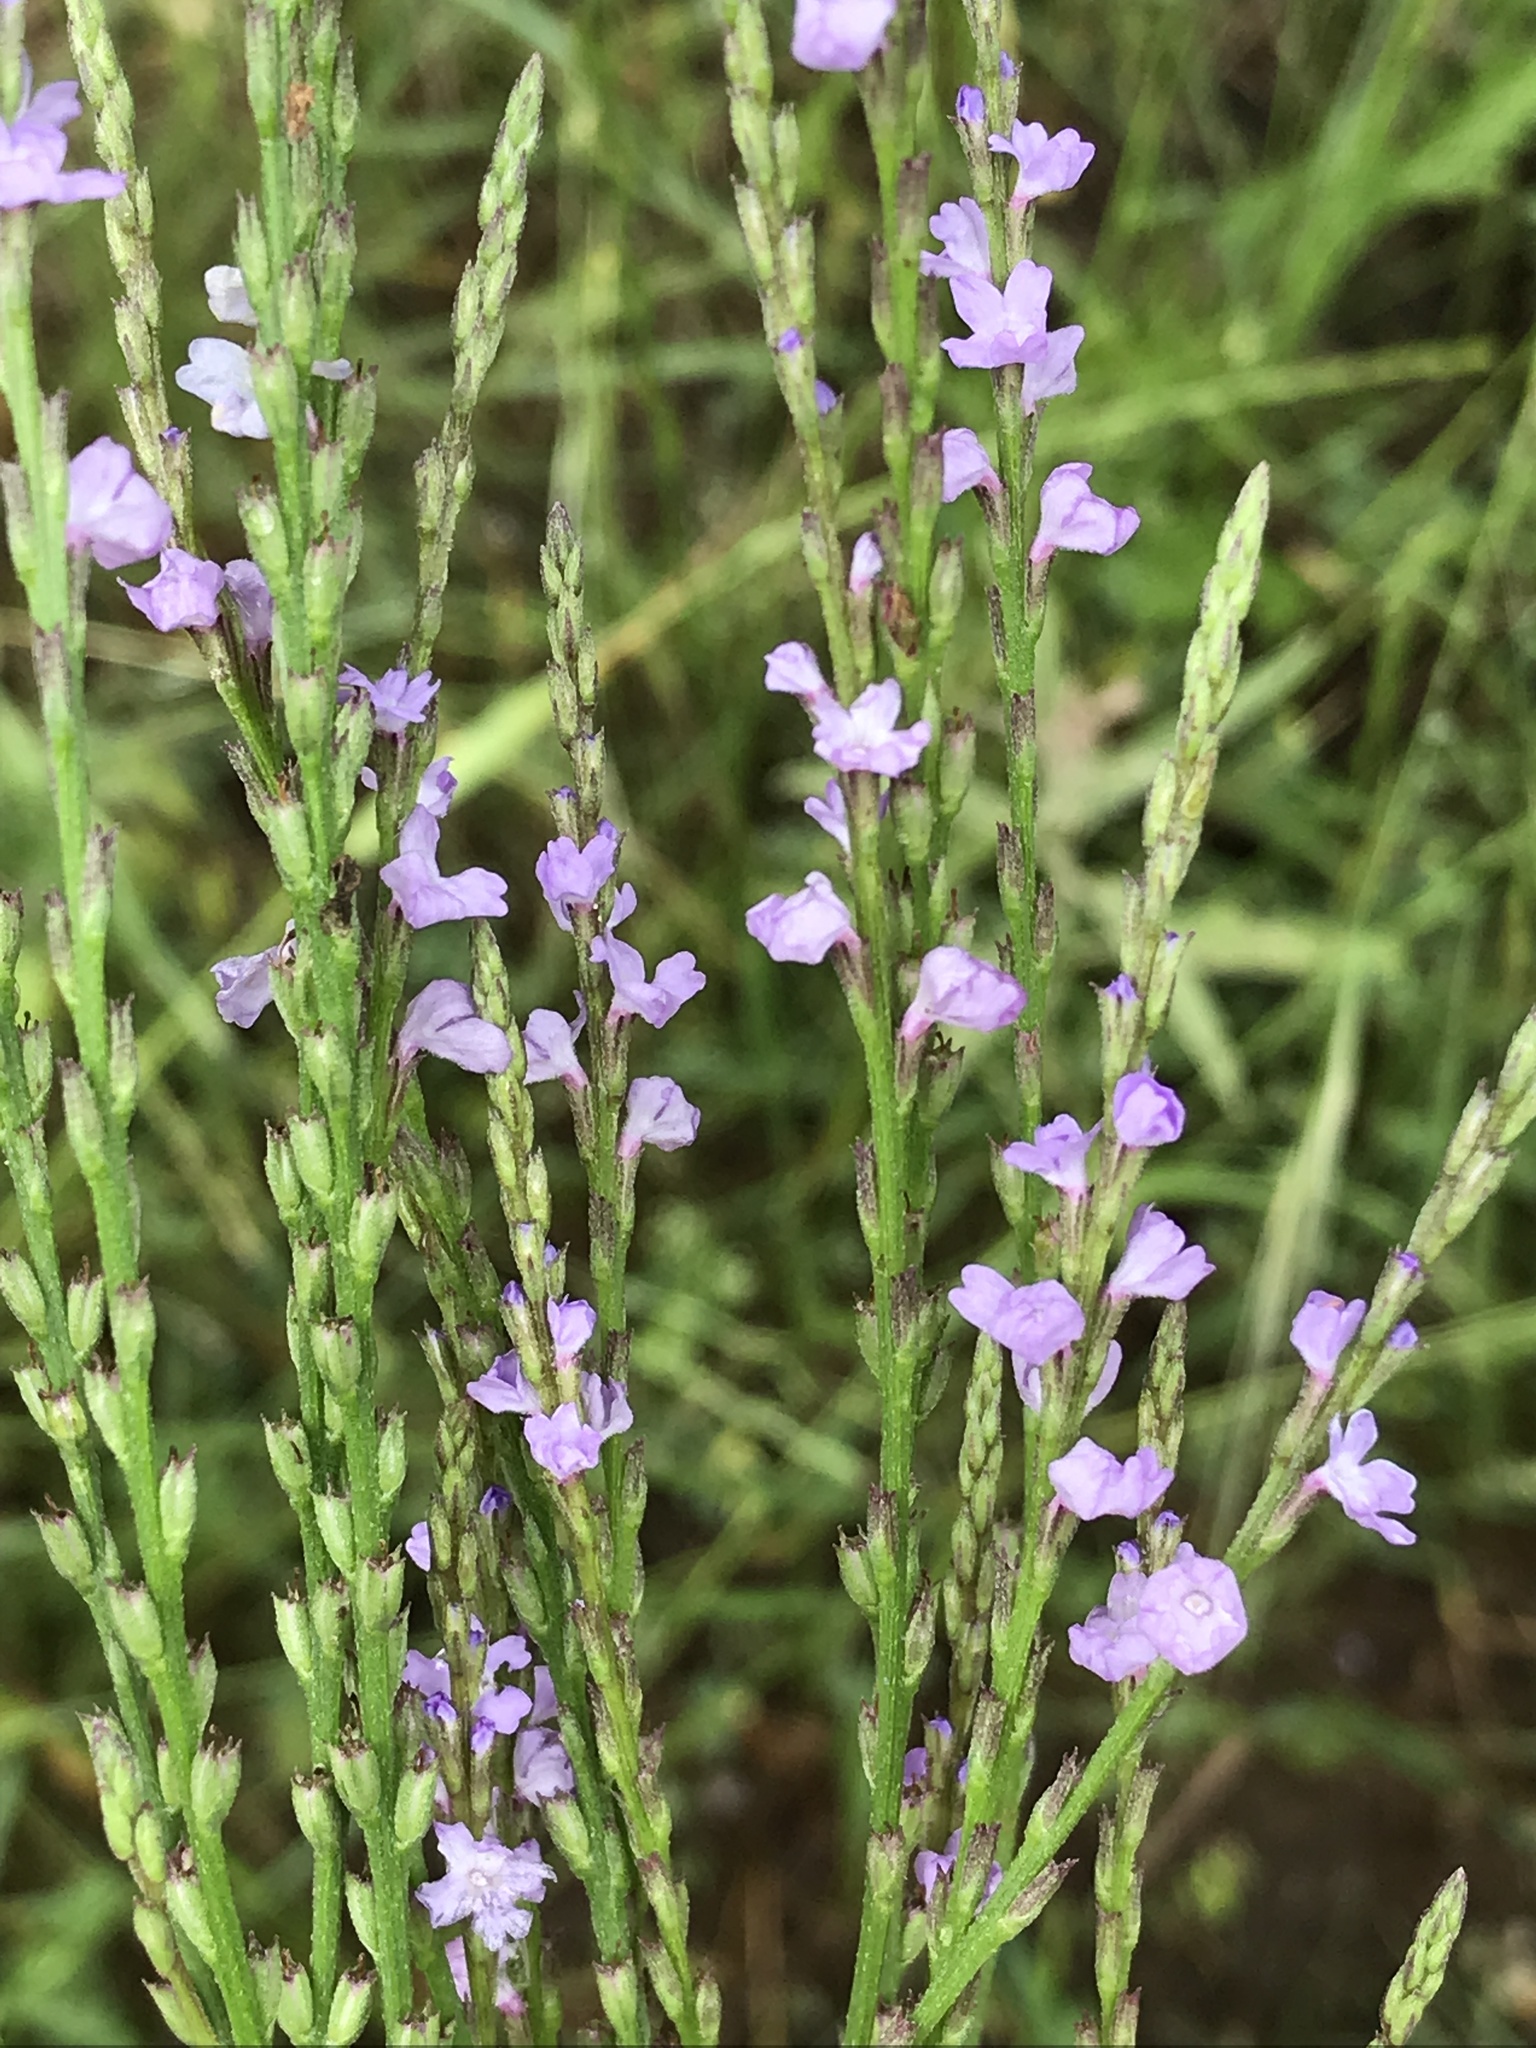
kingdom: Plantae
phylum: Tracheophyta
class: Magnoliopsida
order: Lamiales
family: Verbenaceae
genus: Verbena
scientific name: Verbena halei
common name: Texas vervain
